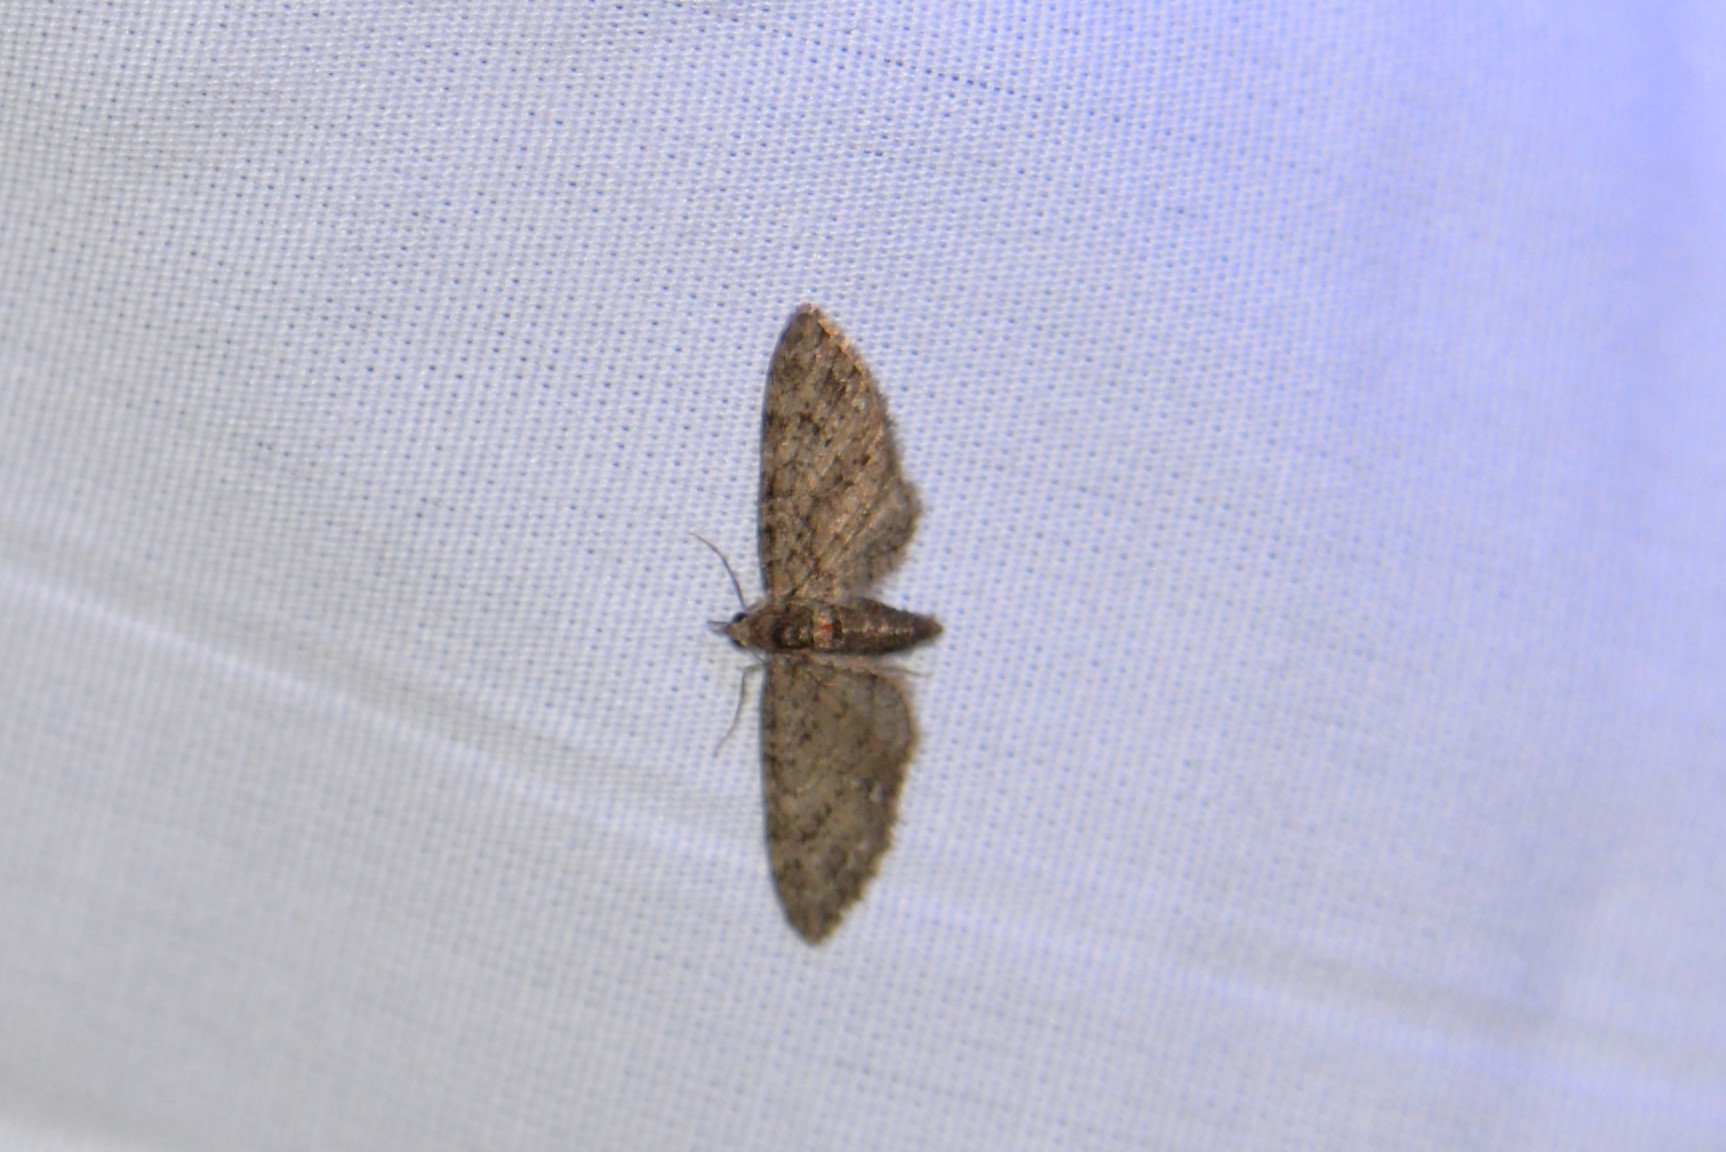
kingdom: Animalia
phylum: Arthropoda
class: Insecta
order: Lepidoptera
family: Geometridae
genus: Eupithecia
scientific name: Eupithecia columbiata
